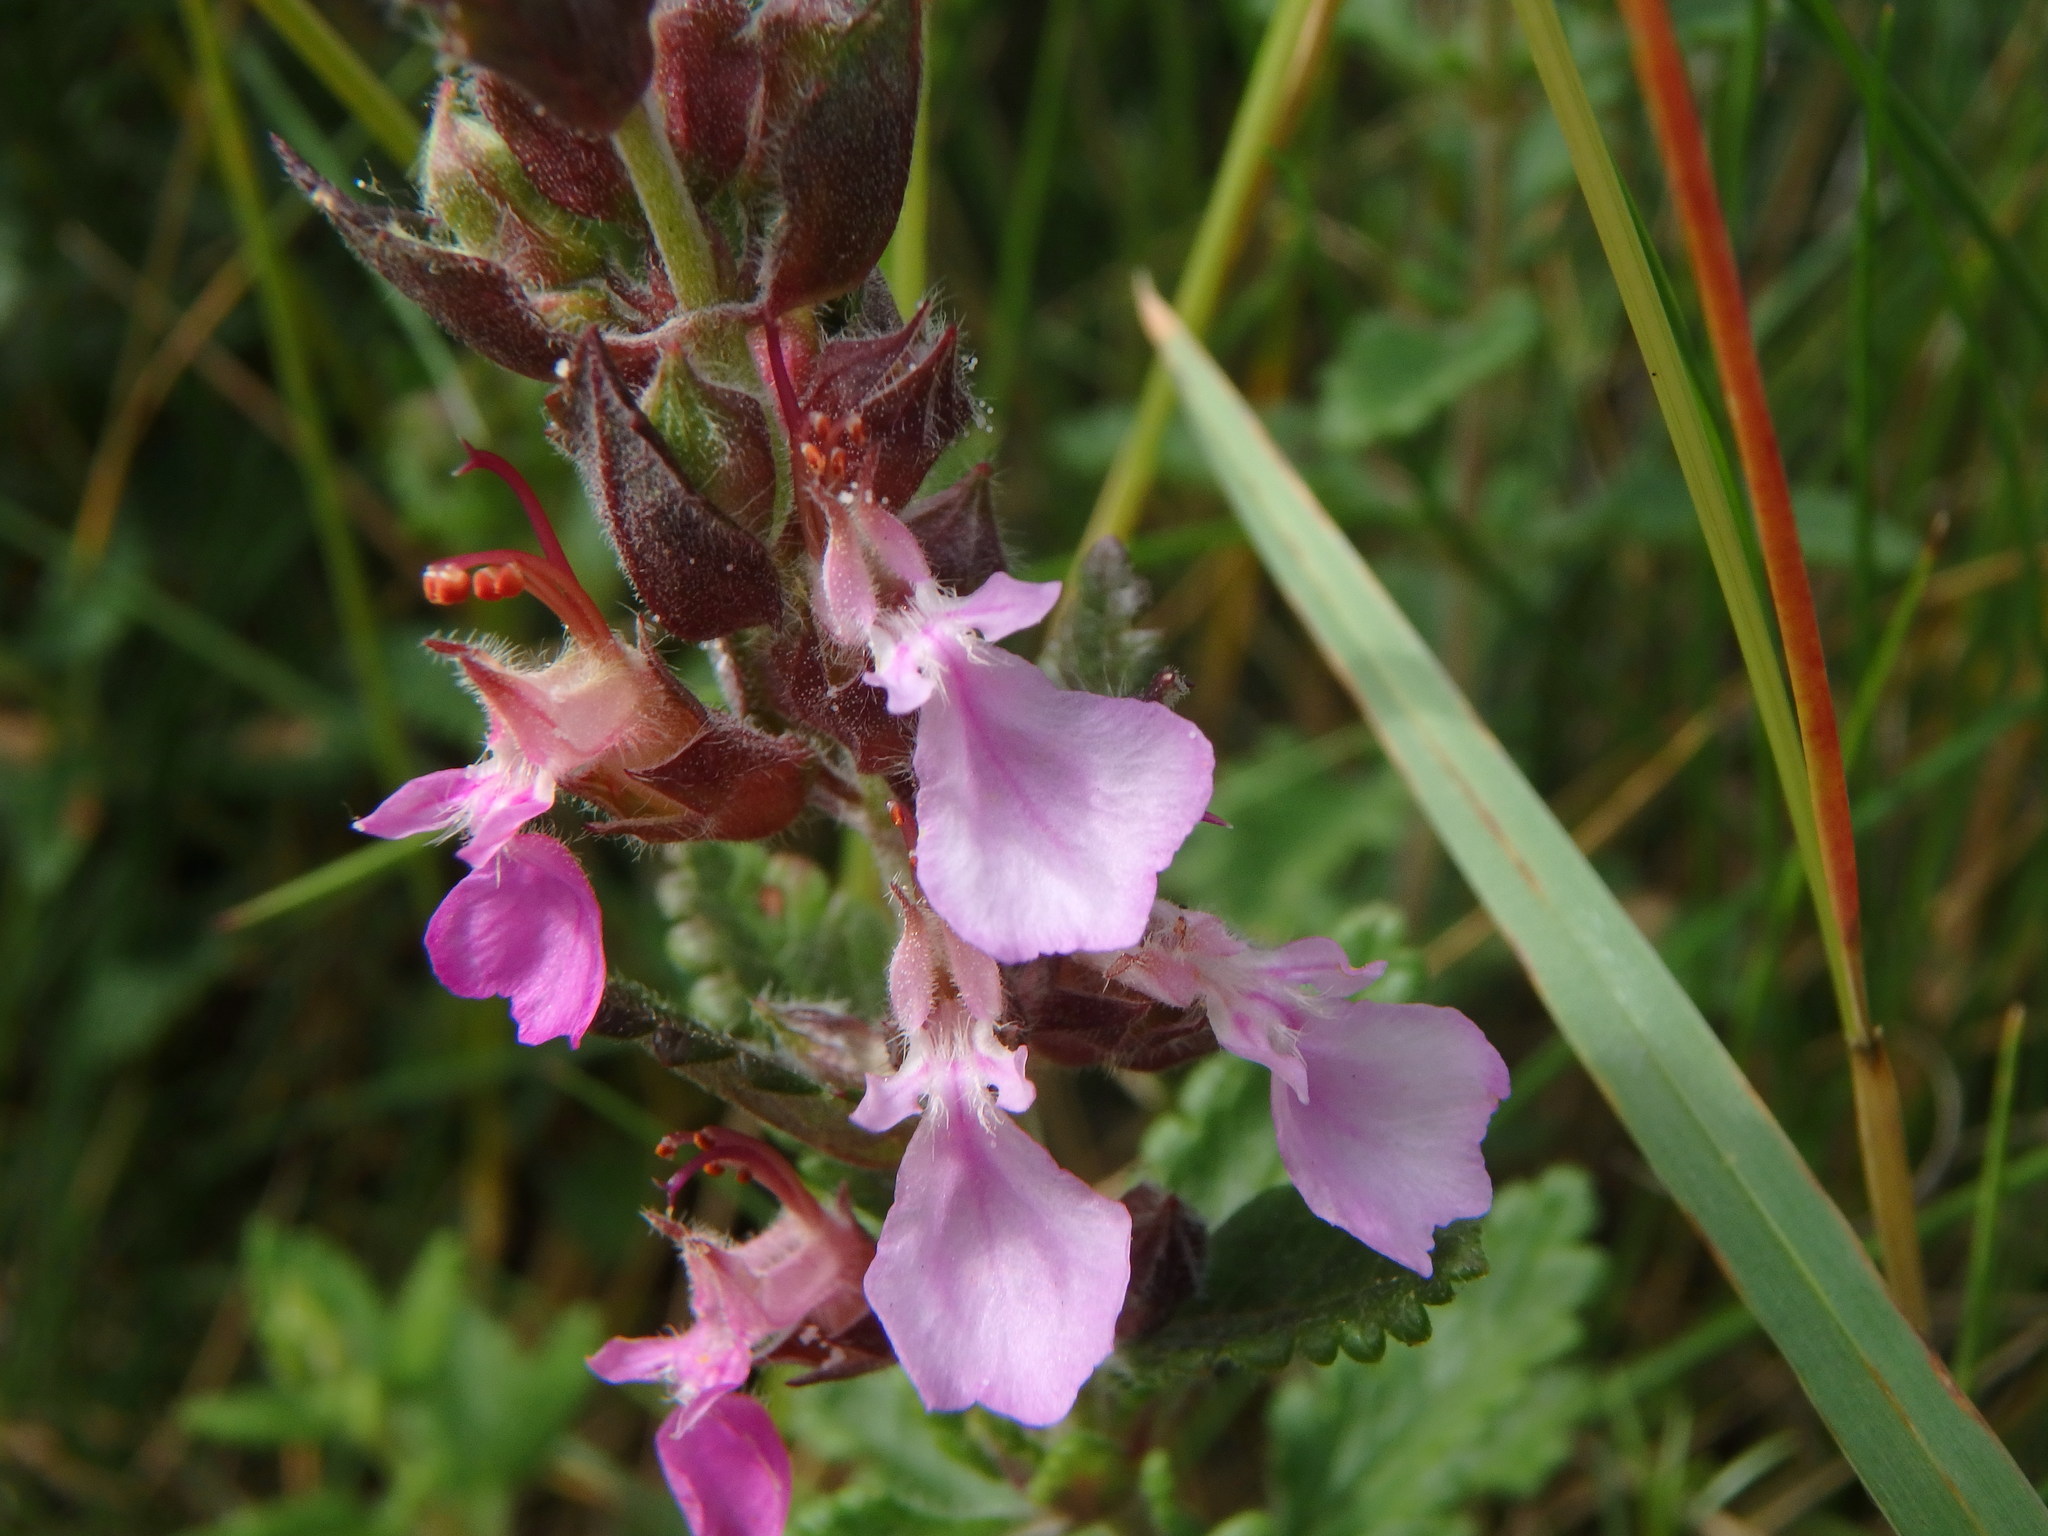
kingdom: Plantae
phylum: Tracheophyta
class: Magnoliopsida
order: Lamiales
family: Lamiaceae
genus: Teucrium
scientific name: Teucrium chamaedrys
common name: Wall germander
